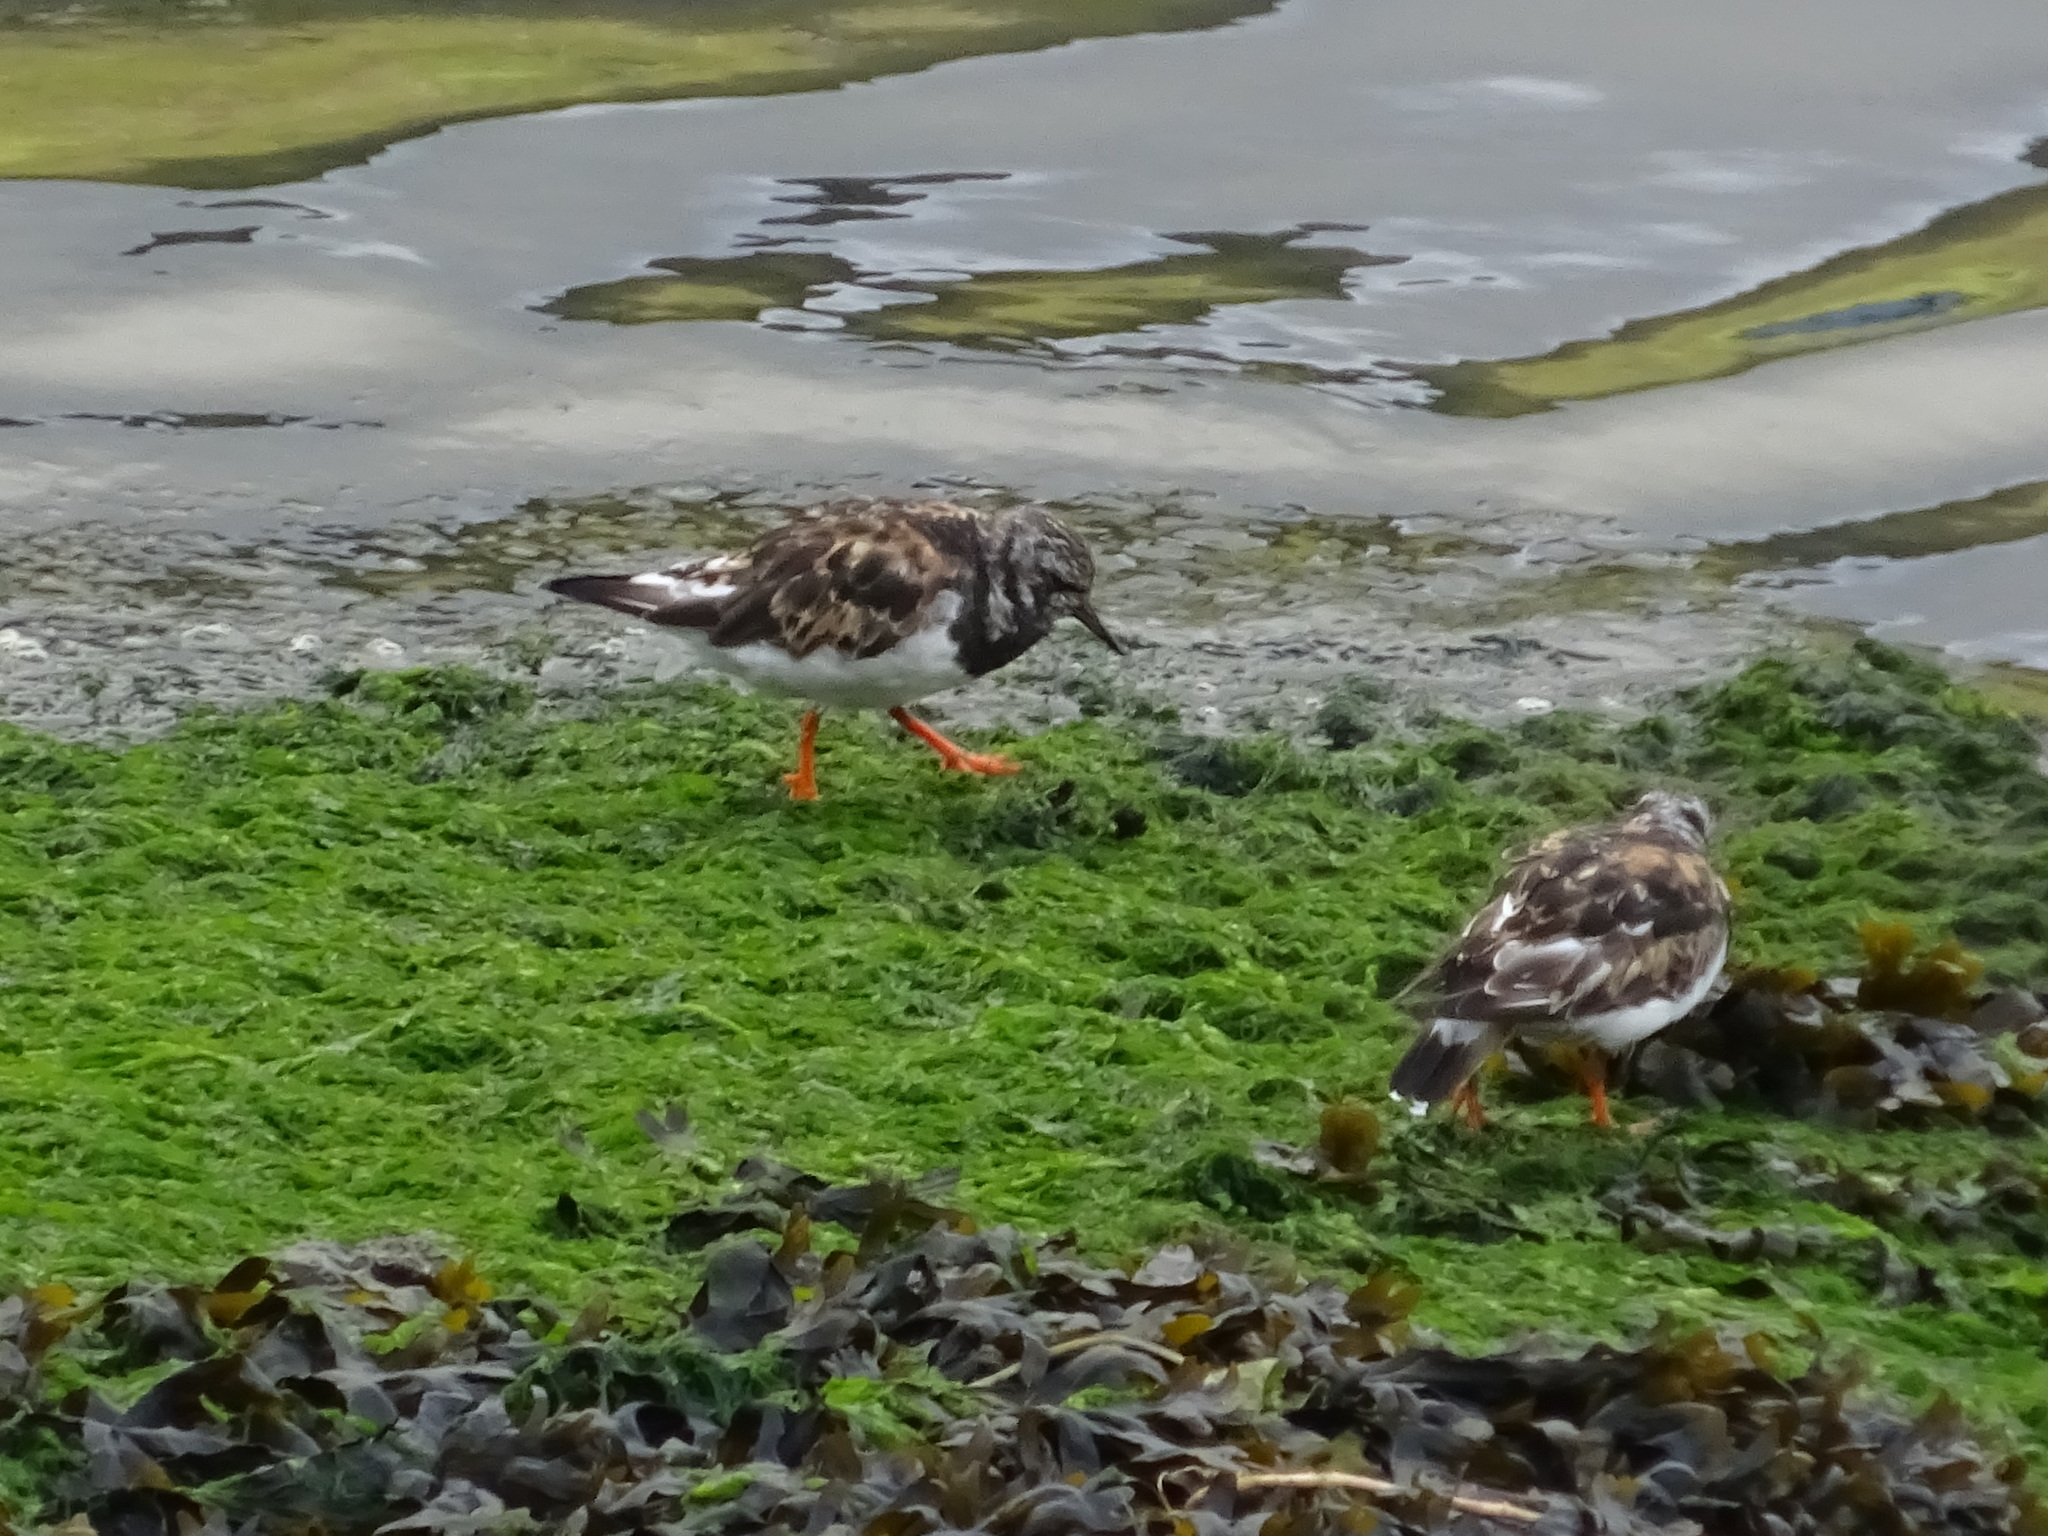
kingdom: Animalia
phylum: Chordata
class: Aves
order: Charadriiformes
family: Scolopacidae
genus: Arenaria
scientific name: Arenaria interpres
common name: Ruddy turnstone
